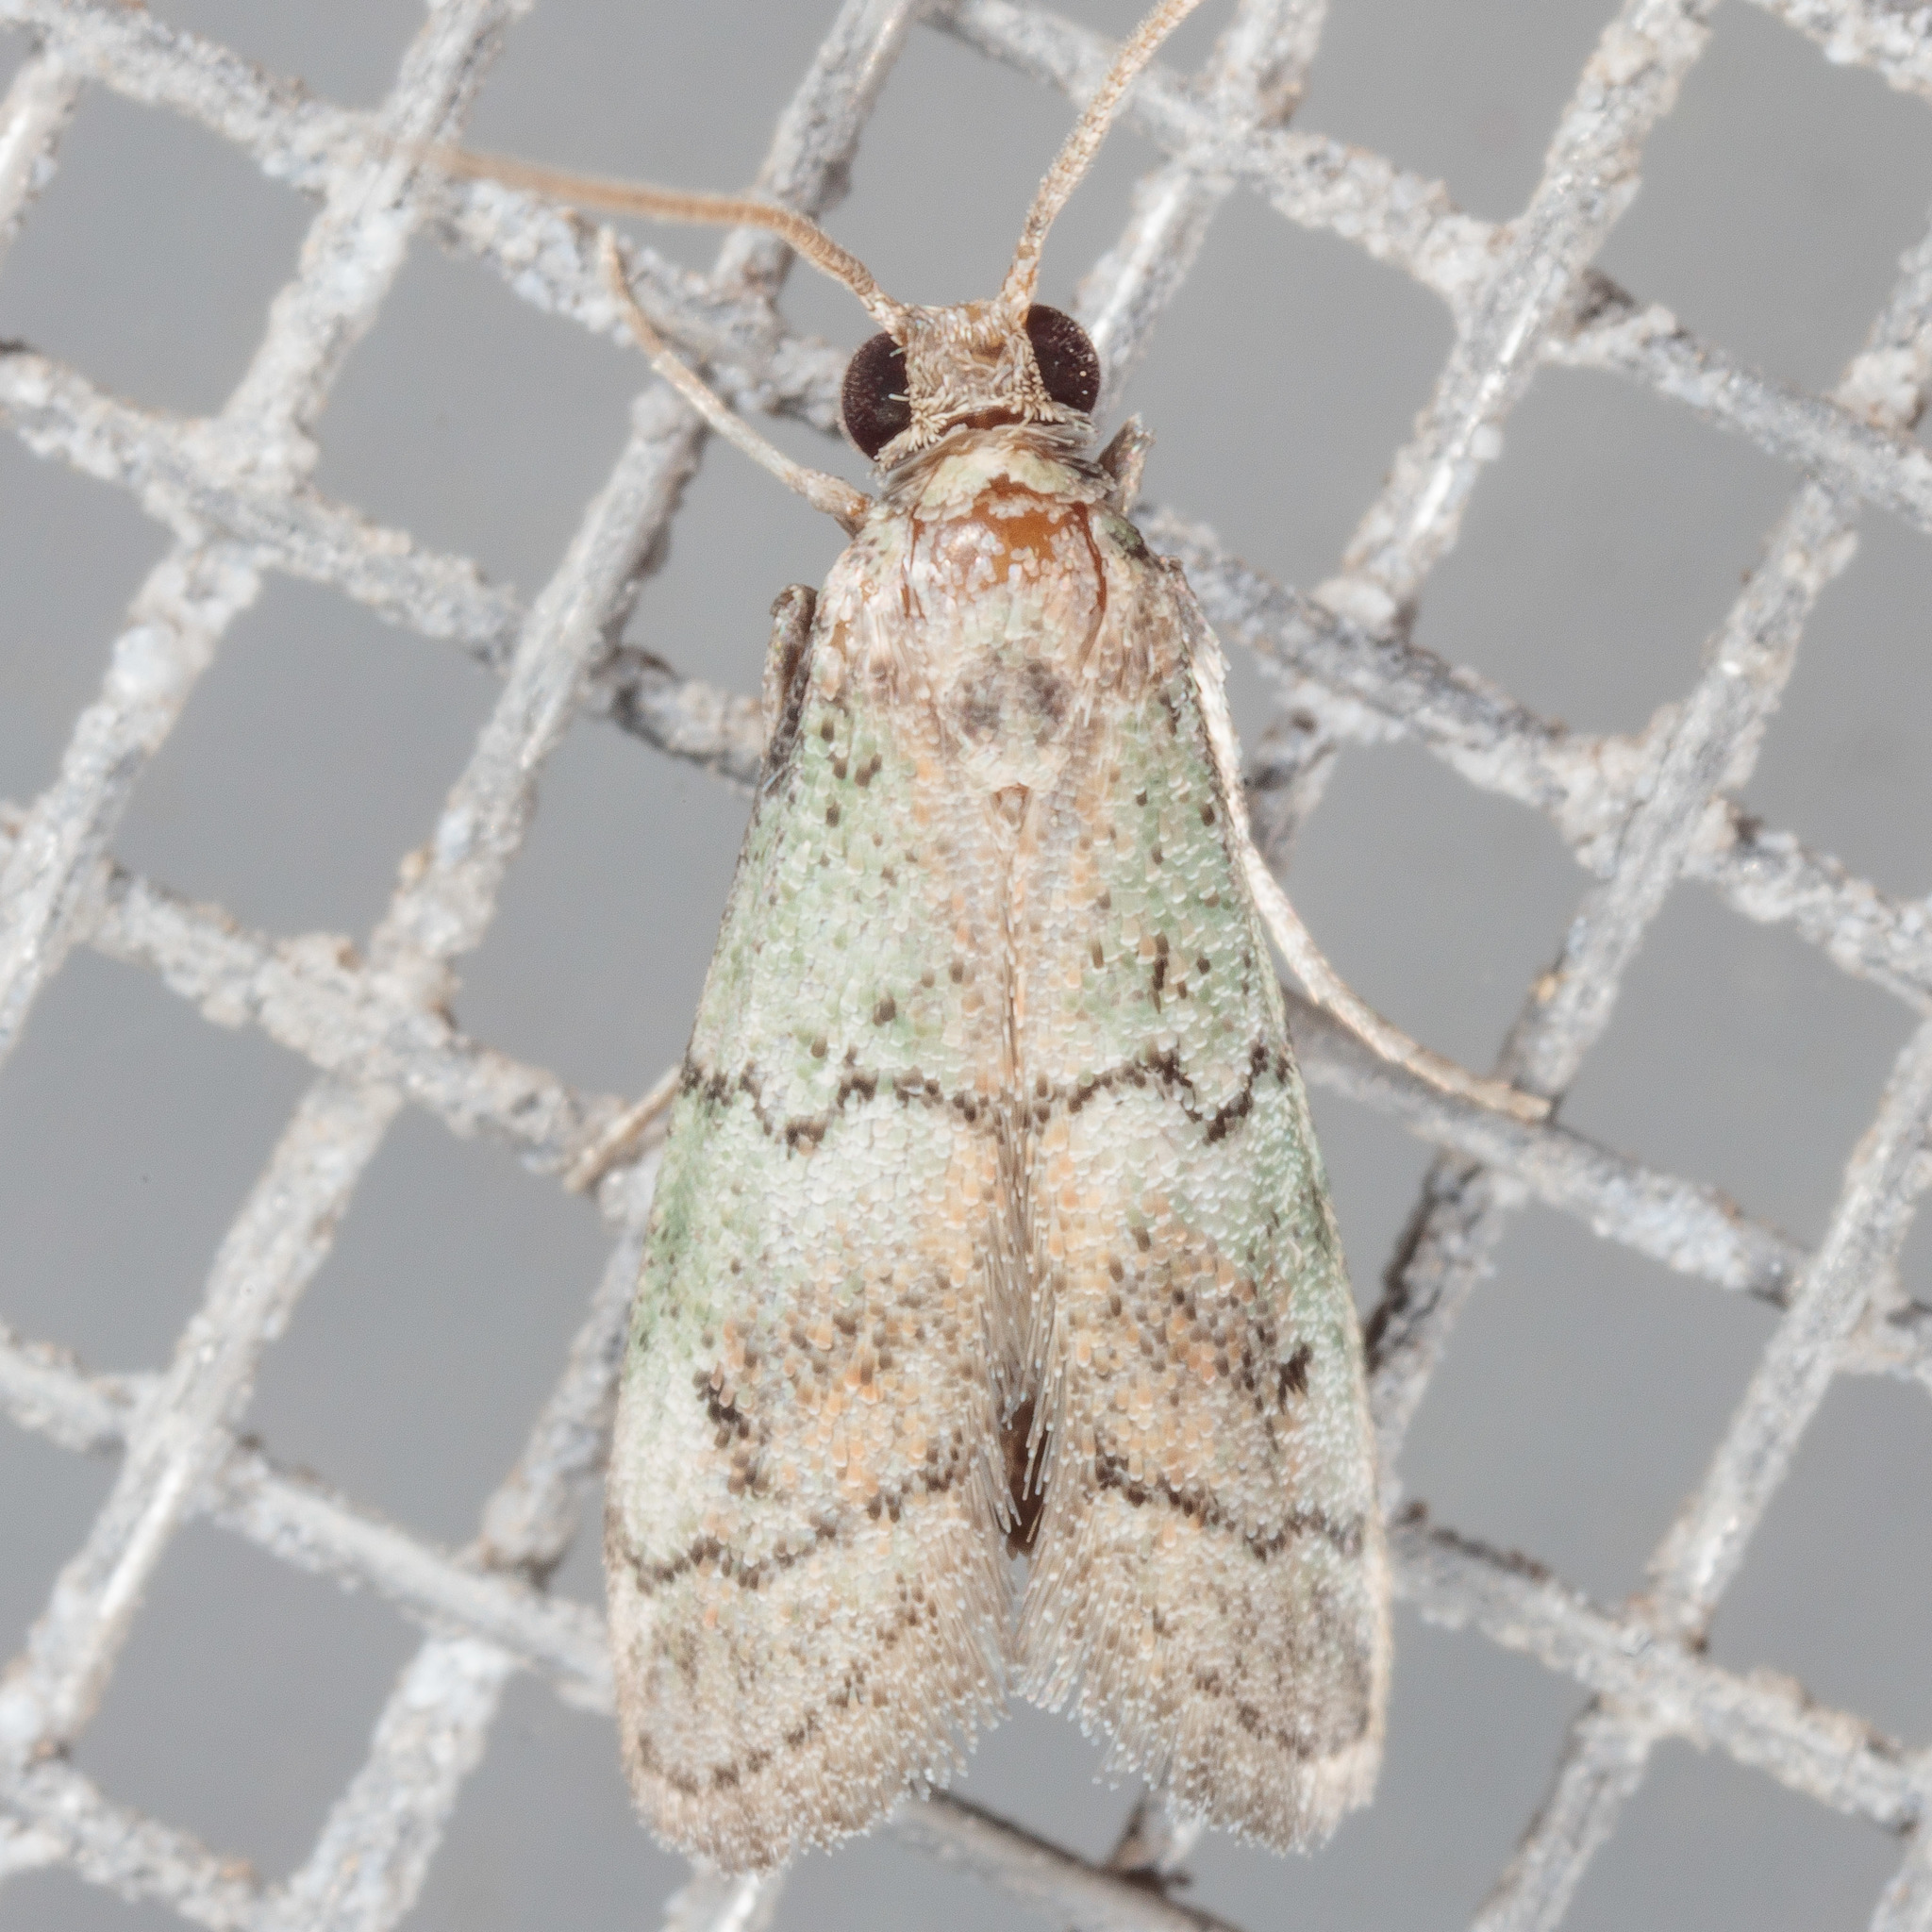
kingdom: Animalia
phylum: Arthropoda
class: Insecta
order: Lepidoptera
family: Pyralidae
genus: Cacotherapia
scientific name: Cacotherapia flexilinealis
